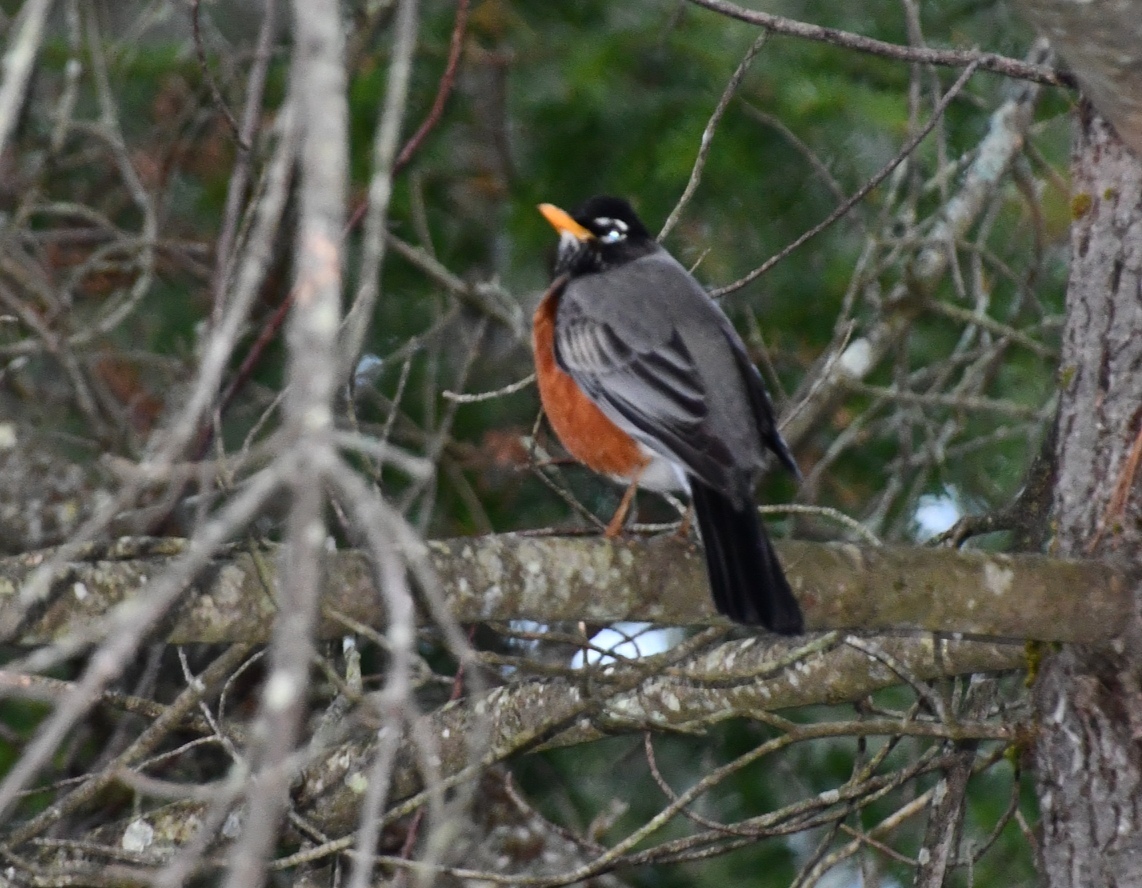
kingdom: Animalia
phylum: Chordata
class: Aves
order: Passeriformes
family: Turdidae
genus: Turdus
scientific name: Turdus migratorius
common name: American robin
